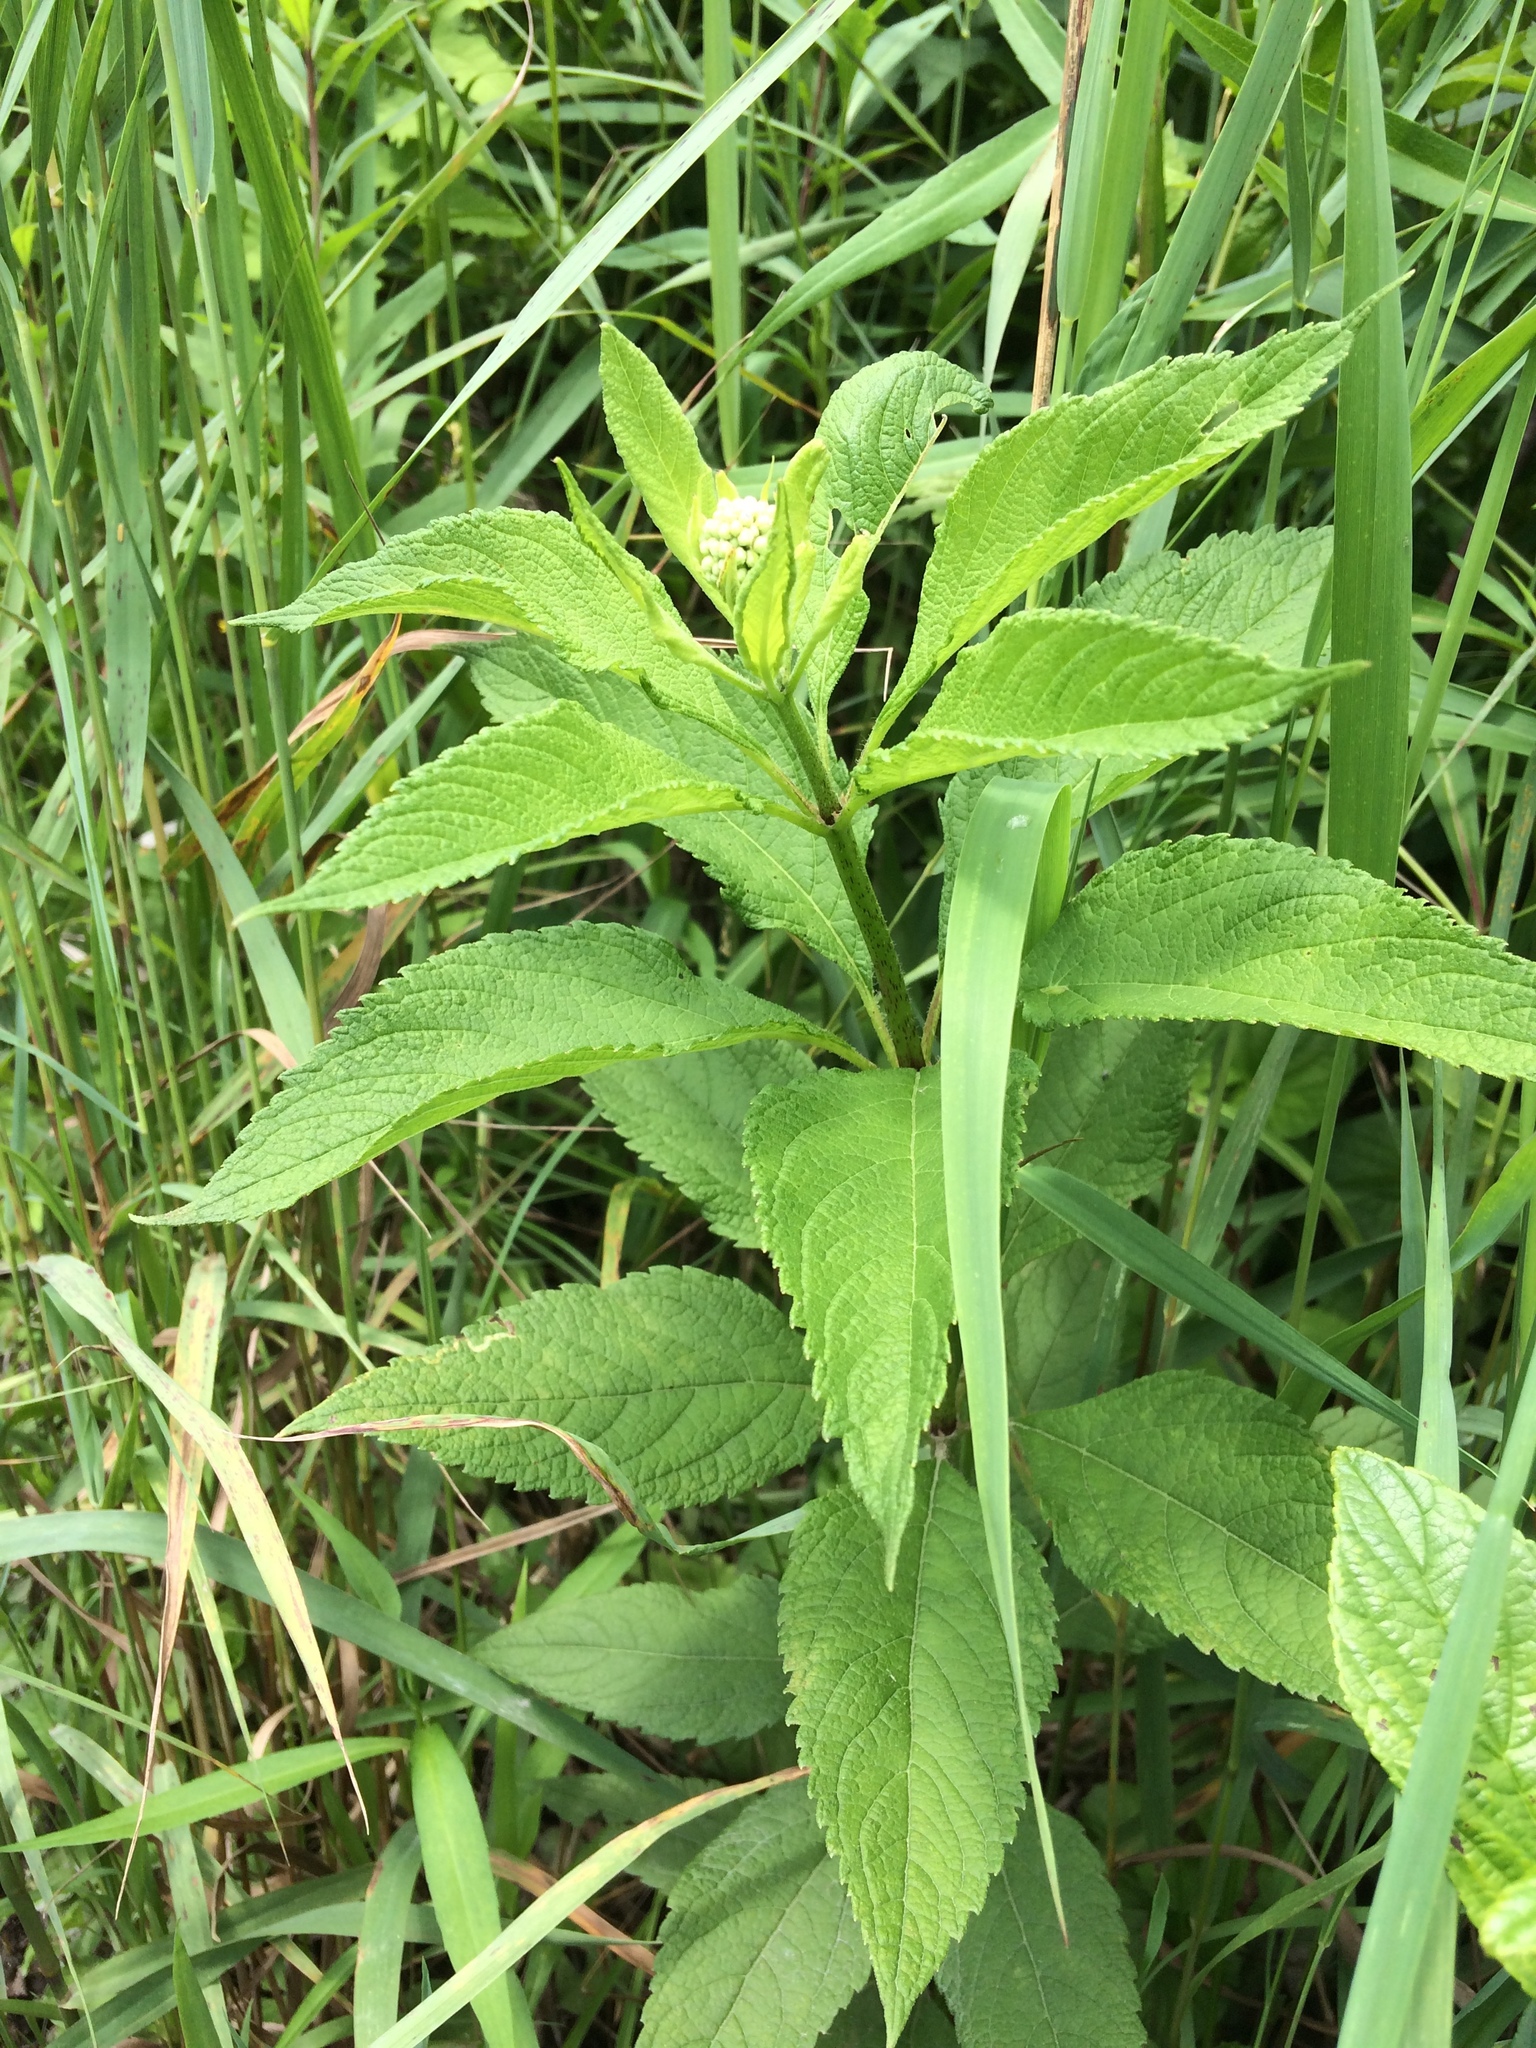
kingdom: Plantae
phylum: Tracheophyta
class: Magnoliopsida
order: Asterales
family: Asteraceae
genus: Eutrochium
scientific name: Eutrochium maculatum
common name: Spotted joe pye weed
